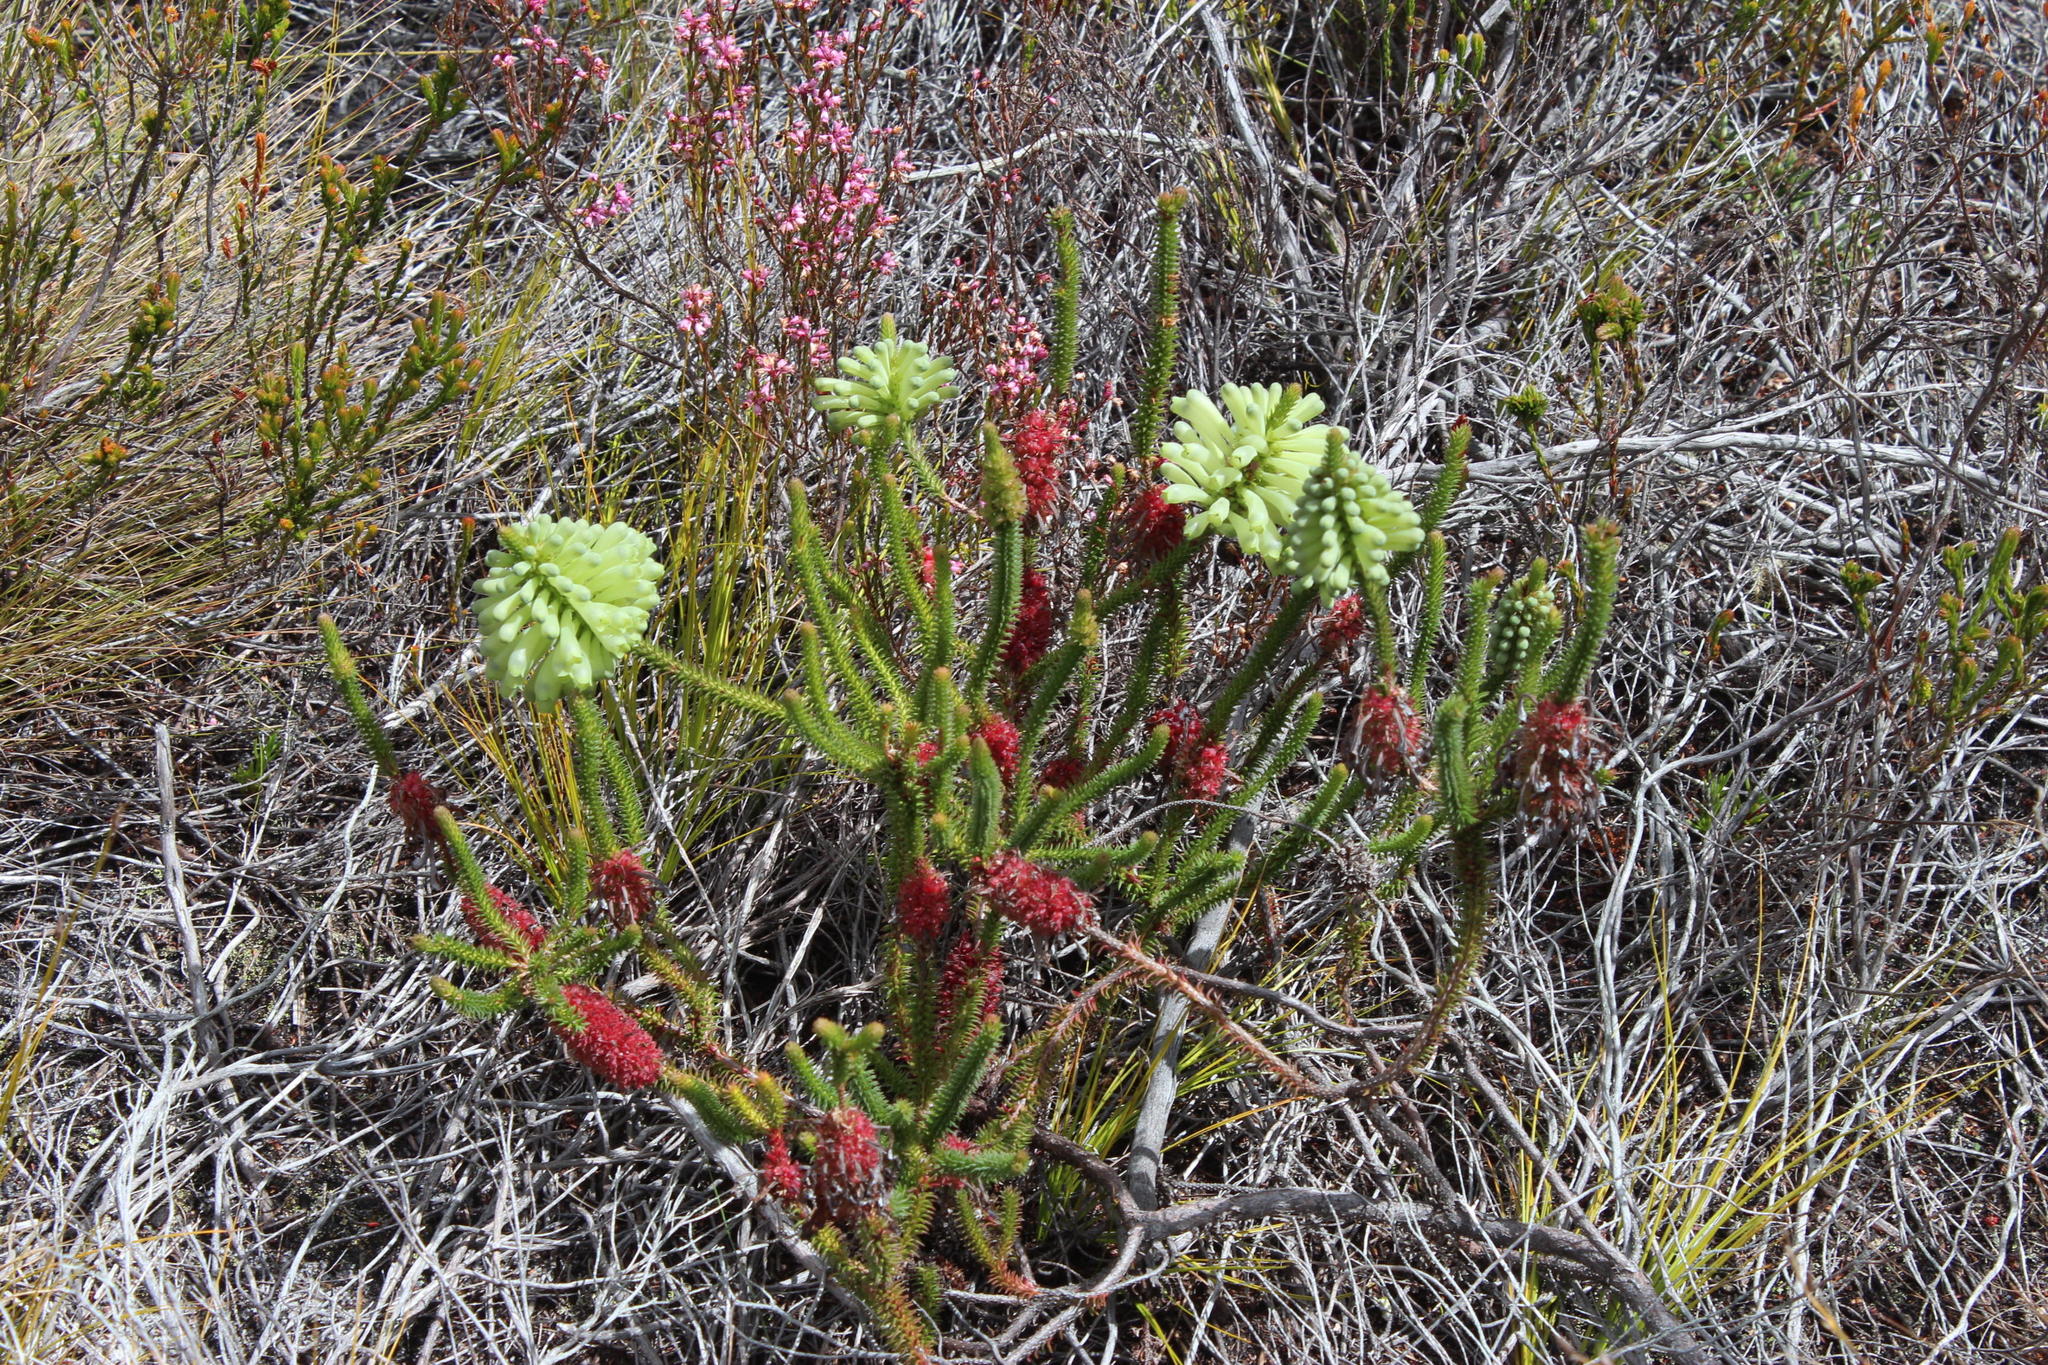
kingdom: Plantae
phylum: Tracheophyta
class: Magnoliopsida
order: Ericales
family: Ericaceae
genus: Erica
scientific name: Erica sessiliflora
